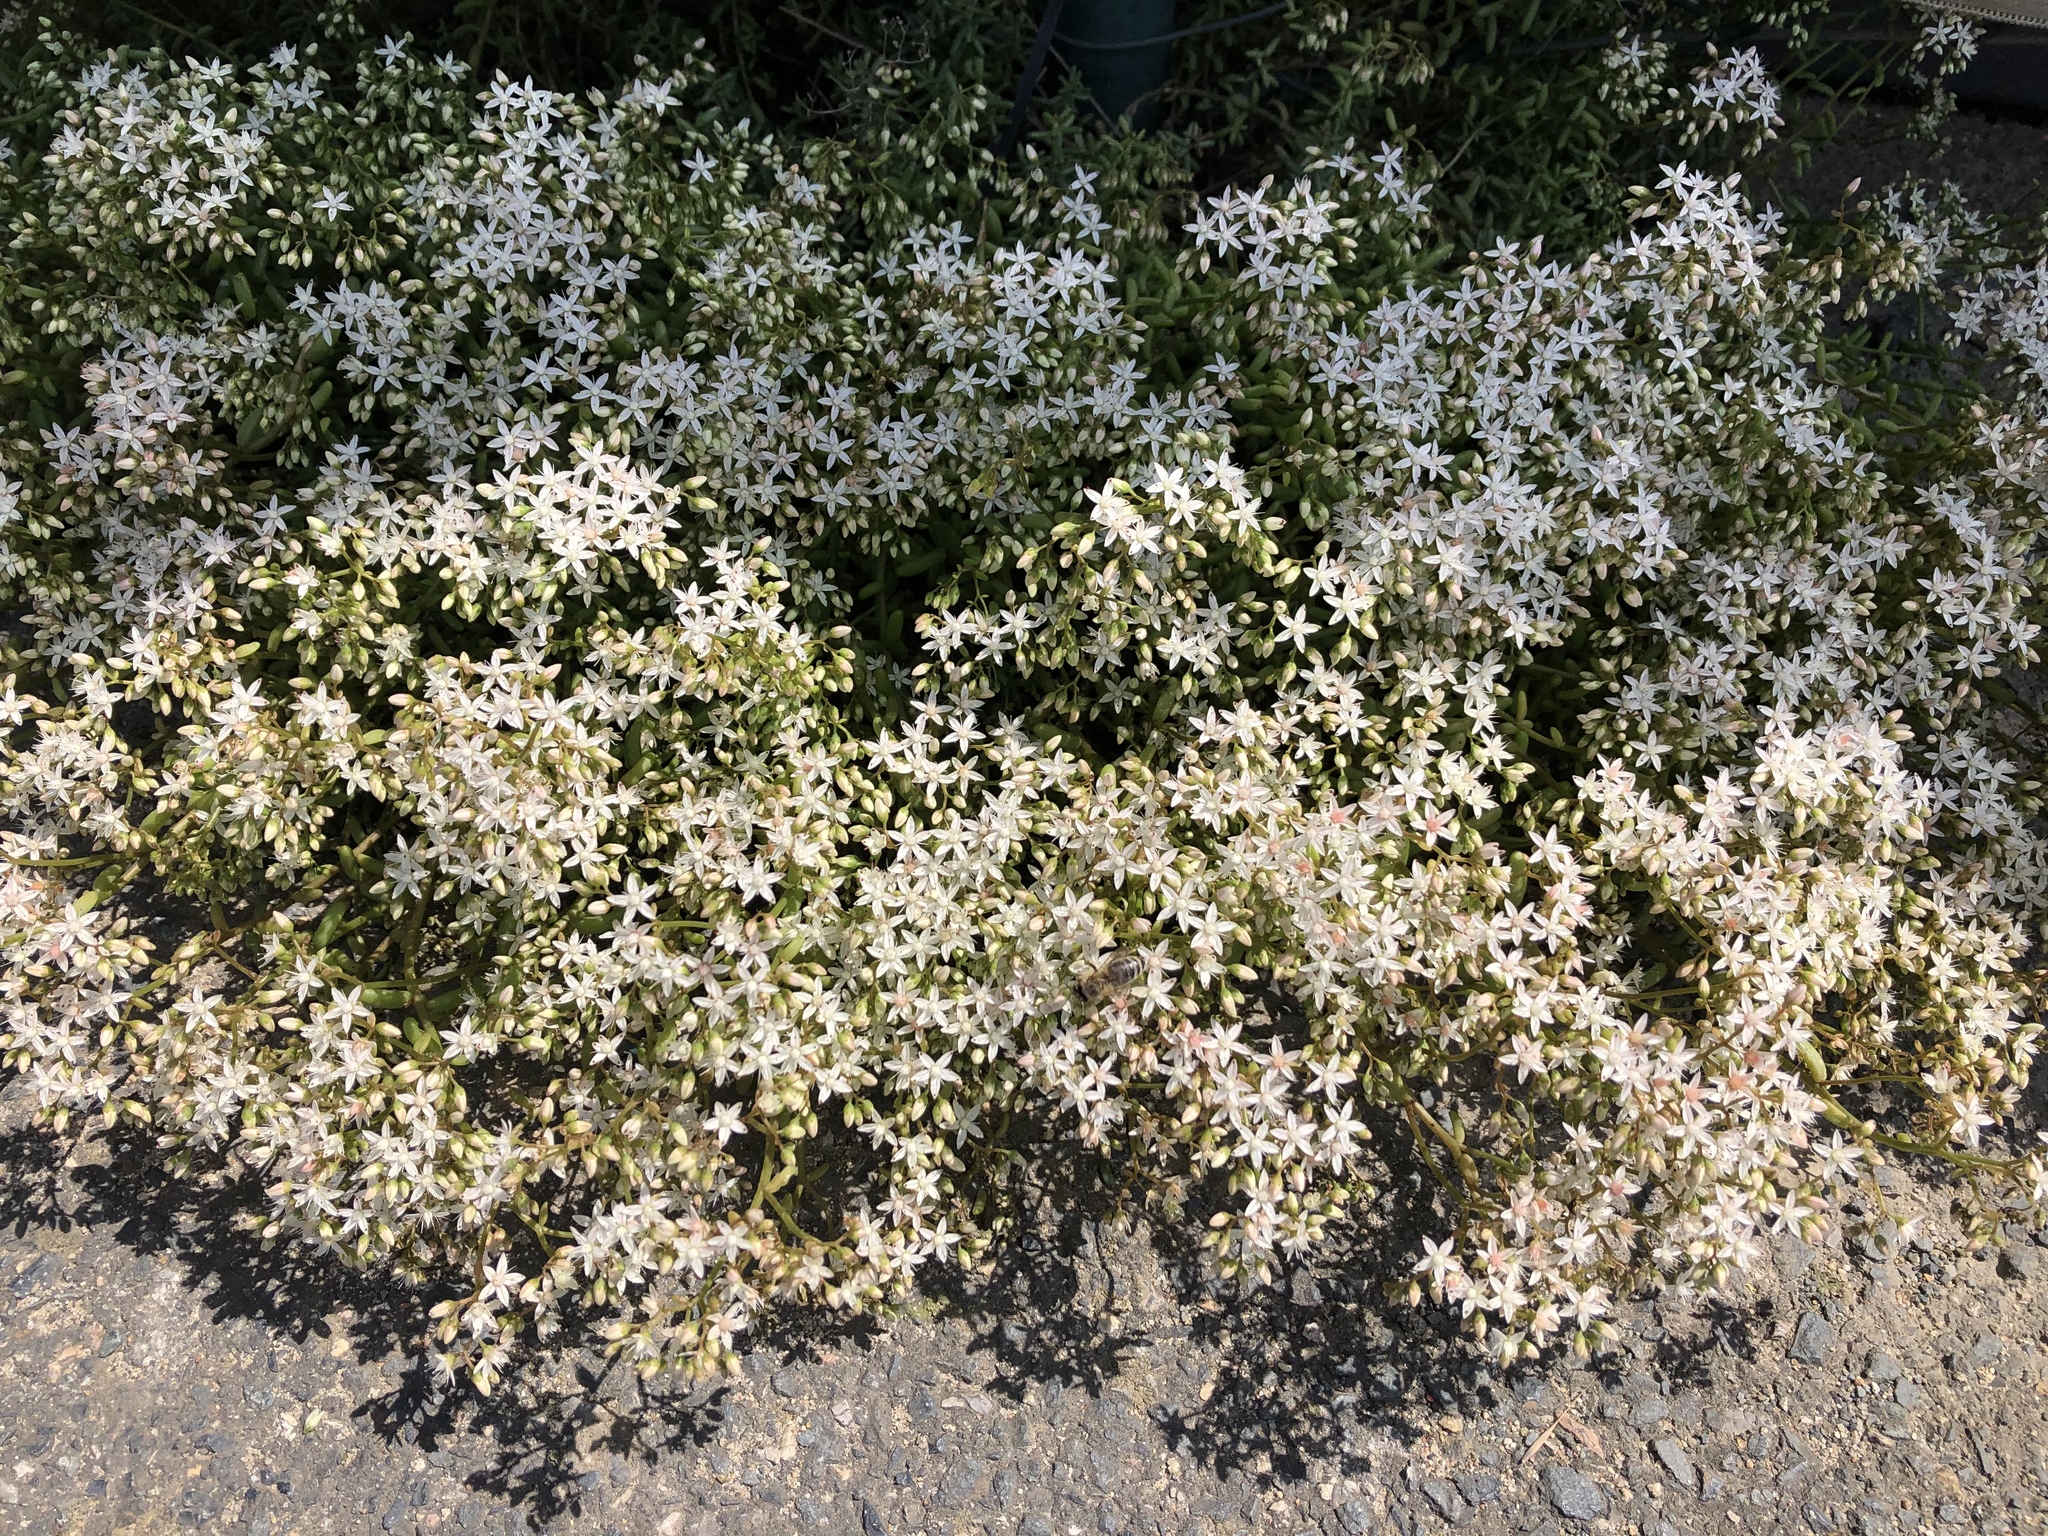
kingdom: Plantae
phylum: Tracheophyta
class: Magnoliopsida
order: Saxifragales
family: Crassulaceae
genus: Sedum
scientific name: Sedum album
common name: White stonecrop
